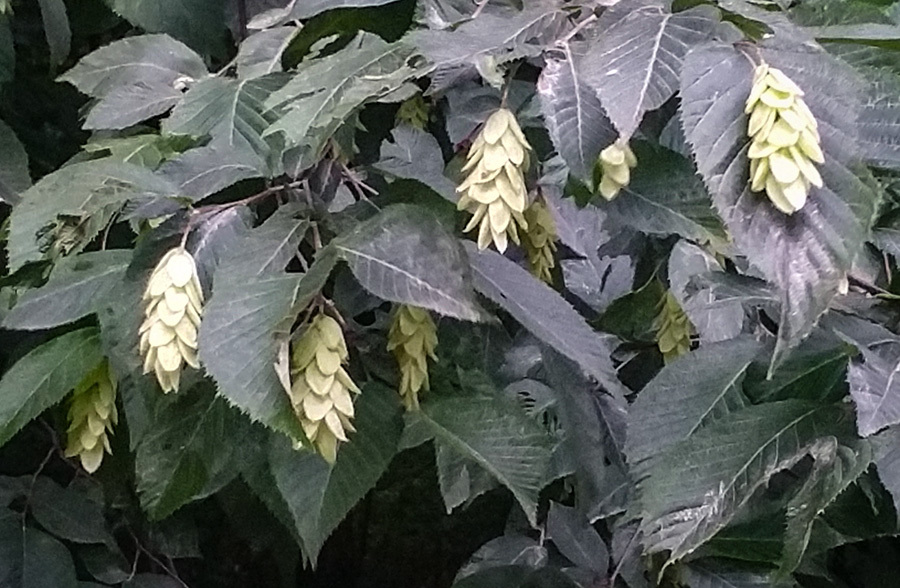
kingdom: Plantae
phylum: Tracheophyta
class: Magnoliopsida
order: Fagales
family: Betulaceae
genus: Ostrya
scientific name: Ostrya virginiana
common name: Ironwood
